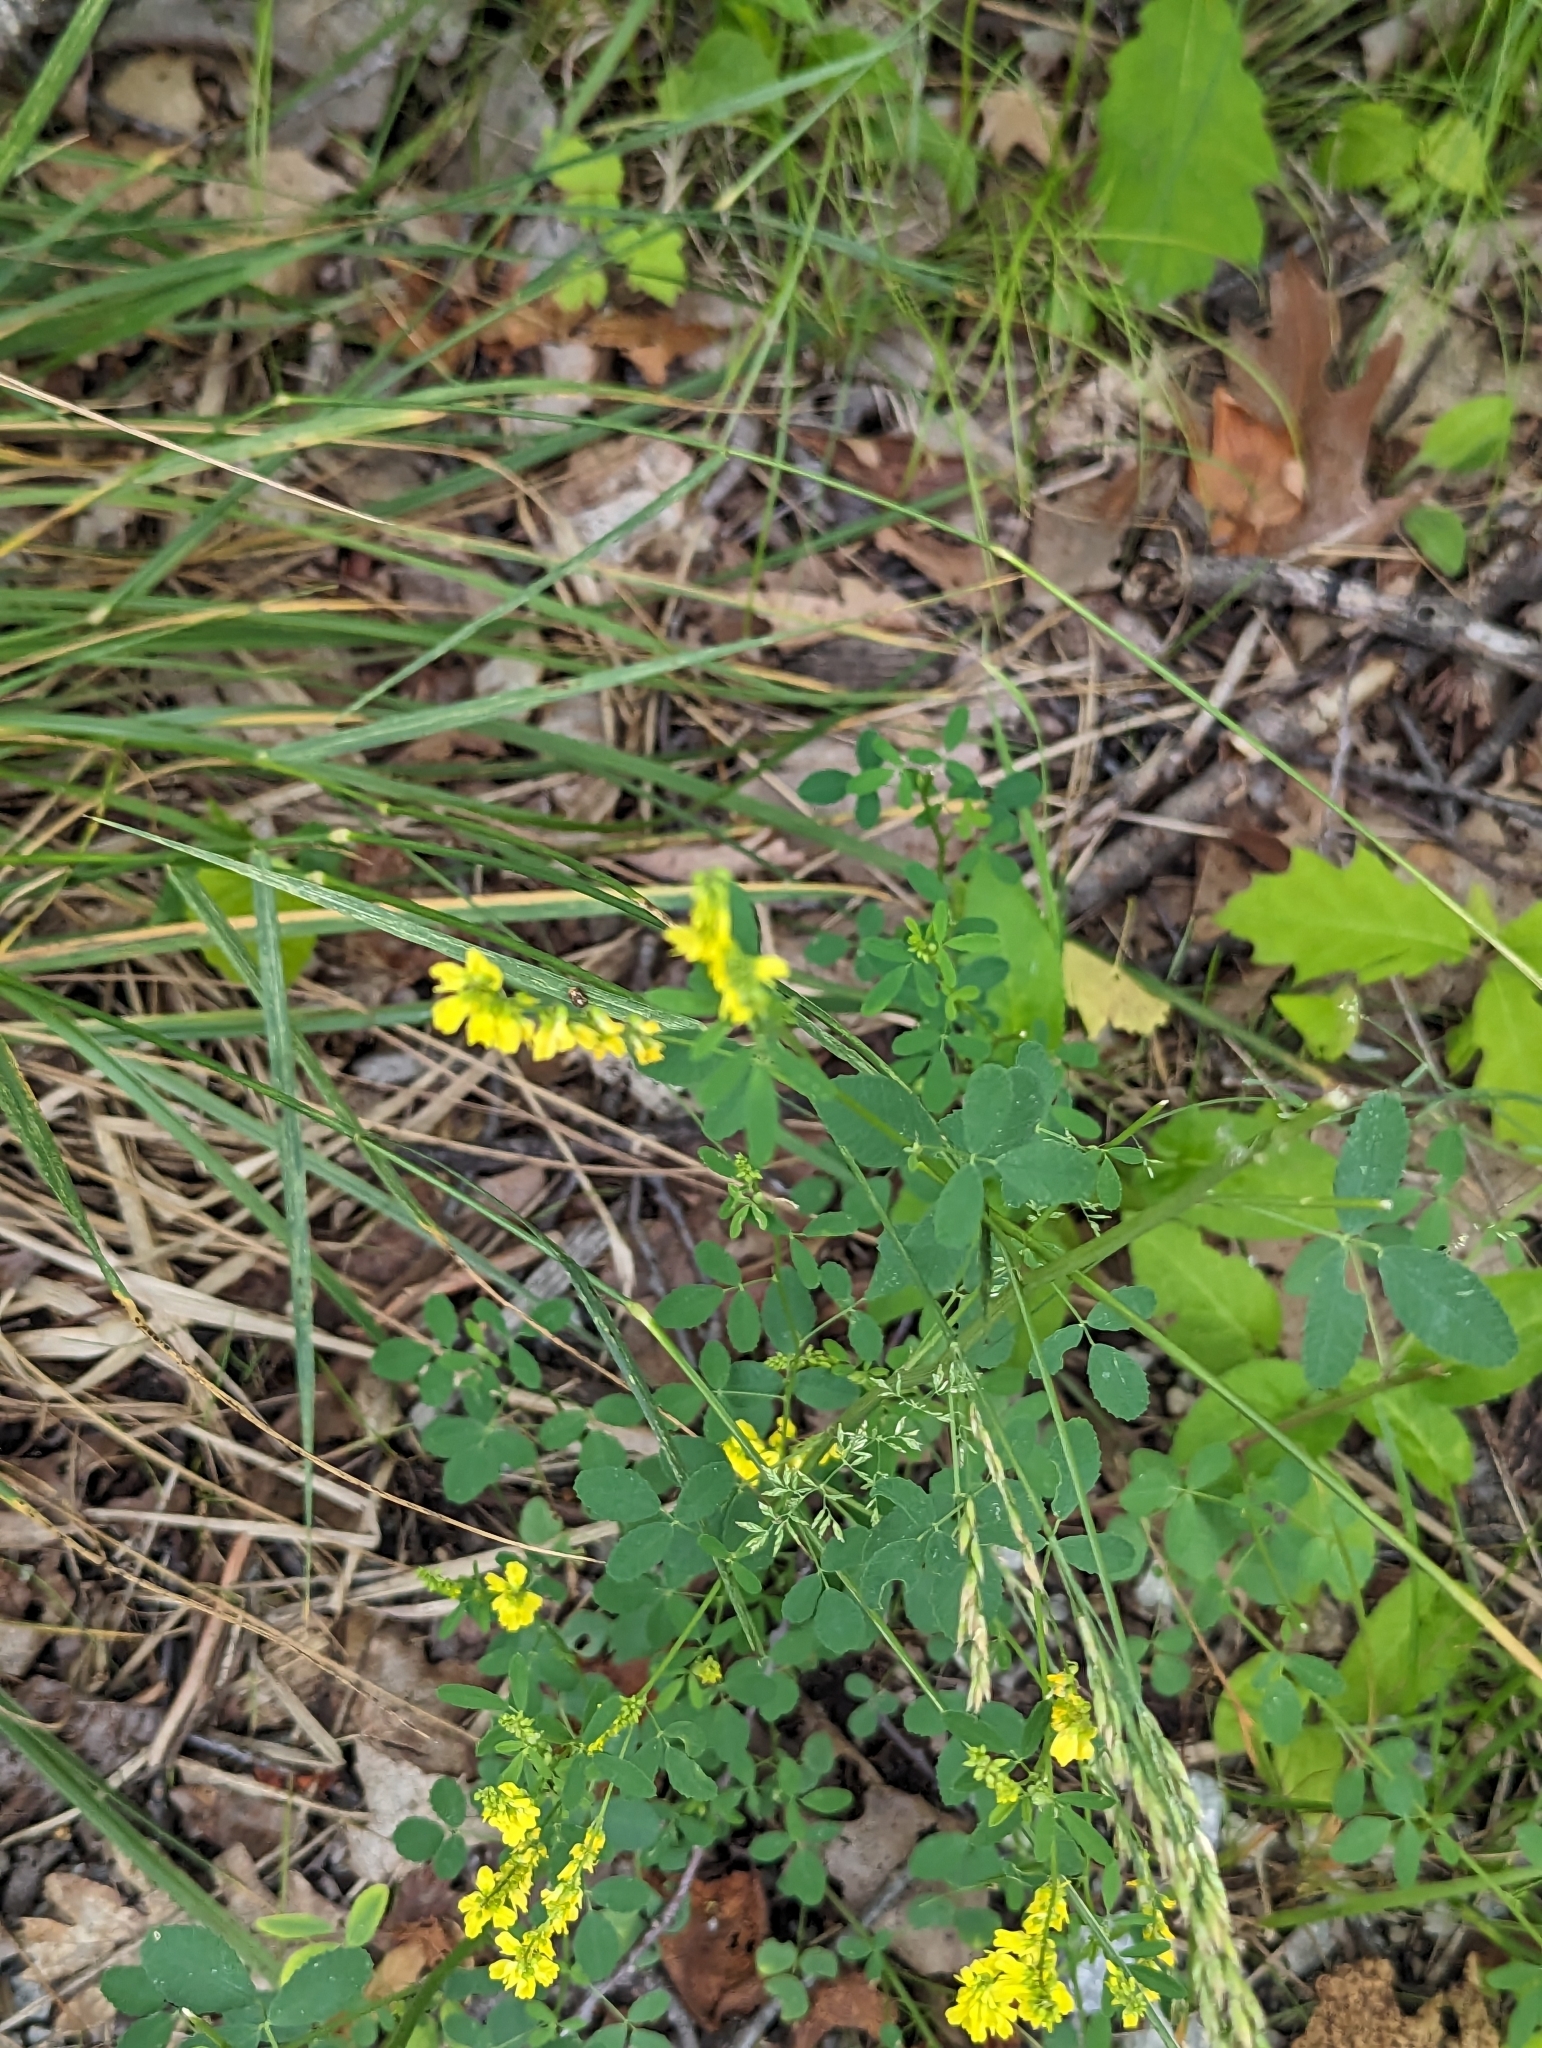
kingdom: Plantae
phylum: Tracheophyta
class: Magnoliopsida
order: Fabales
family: Fabaceae
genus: Melilotus
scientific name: Melilotus officinalis
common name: Sweetclover
